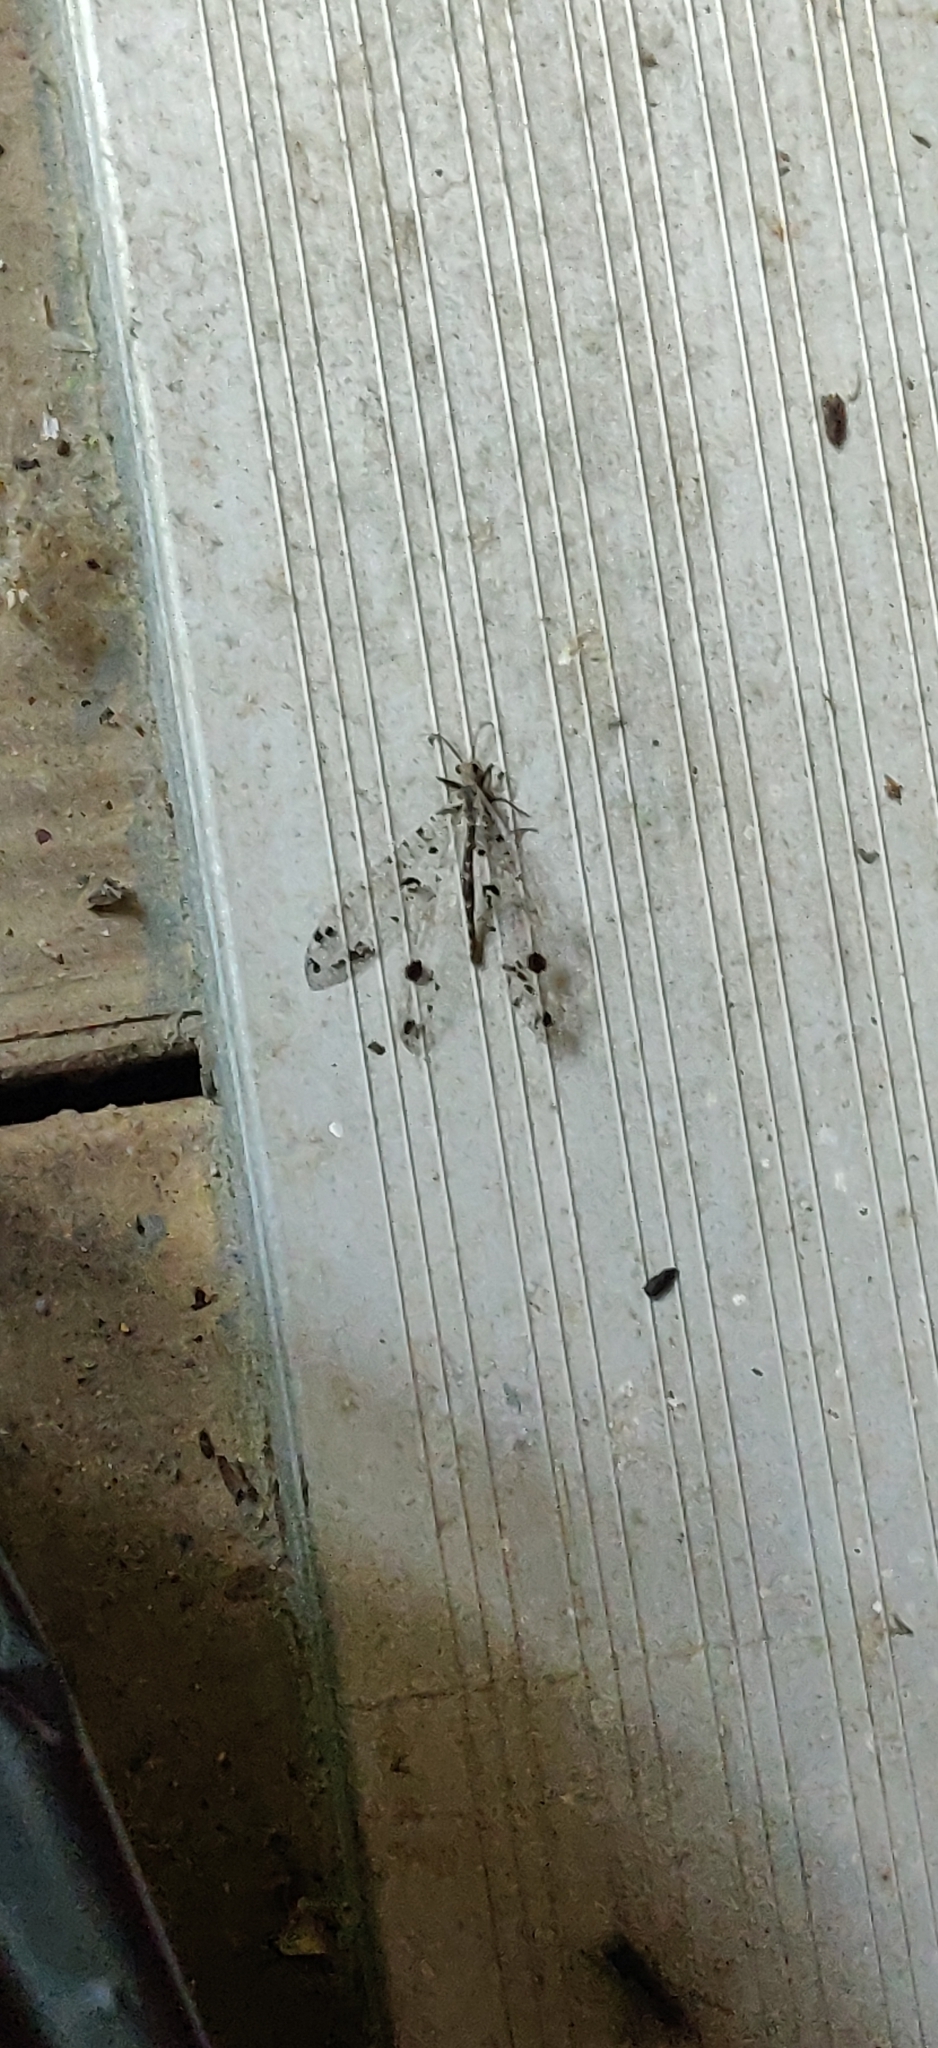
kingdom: Animalia
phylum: Arthropoda
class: Insecta
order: Neuroptera
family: Myrmeleontidae
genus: Dendroleon
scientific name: Dendroleon obsoletus
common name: Eastern spotted-winged antlion
